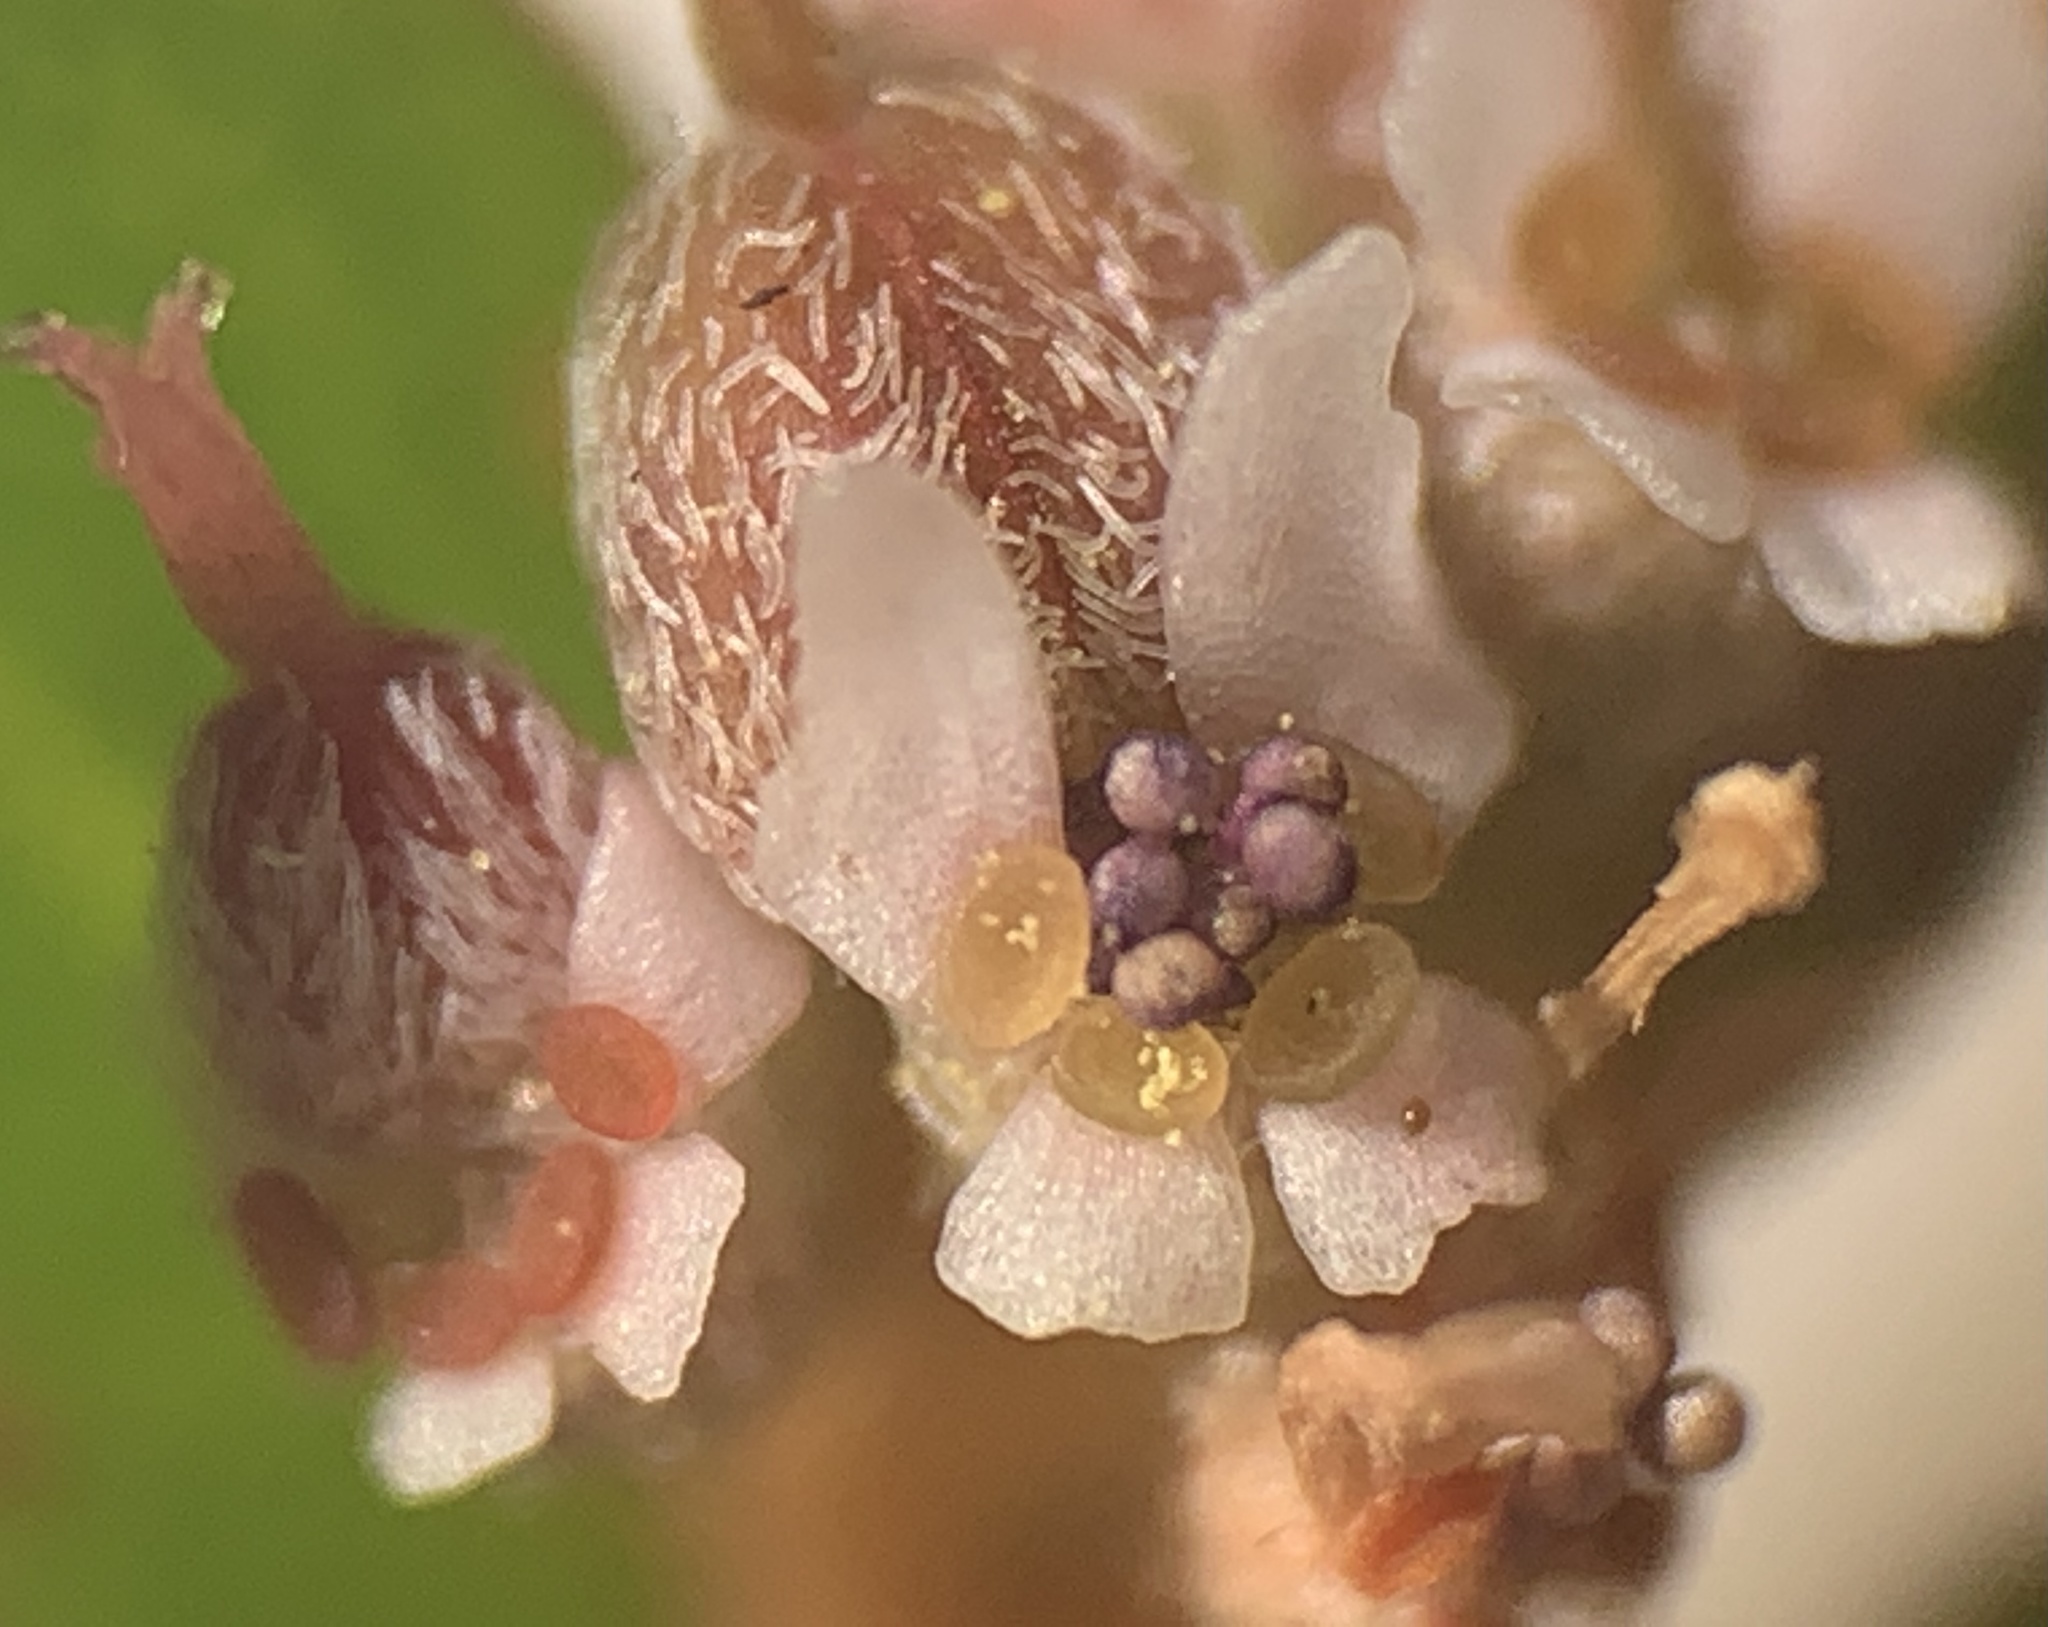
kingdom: Plantae
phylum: Tracheophyta
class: Magnoliopsida
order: Malpighiales
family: Euphorbiaceae
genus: Euphorbia
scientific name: Euphorbia thymifolia
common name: Gulf sandmat
